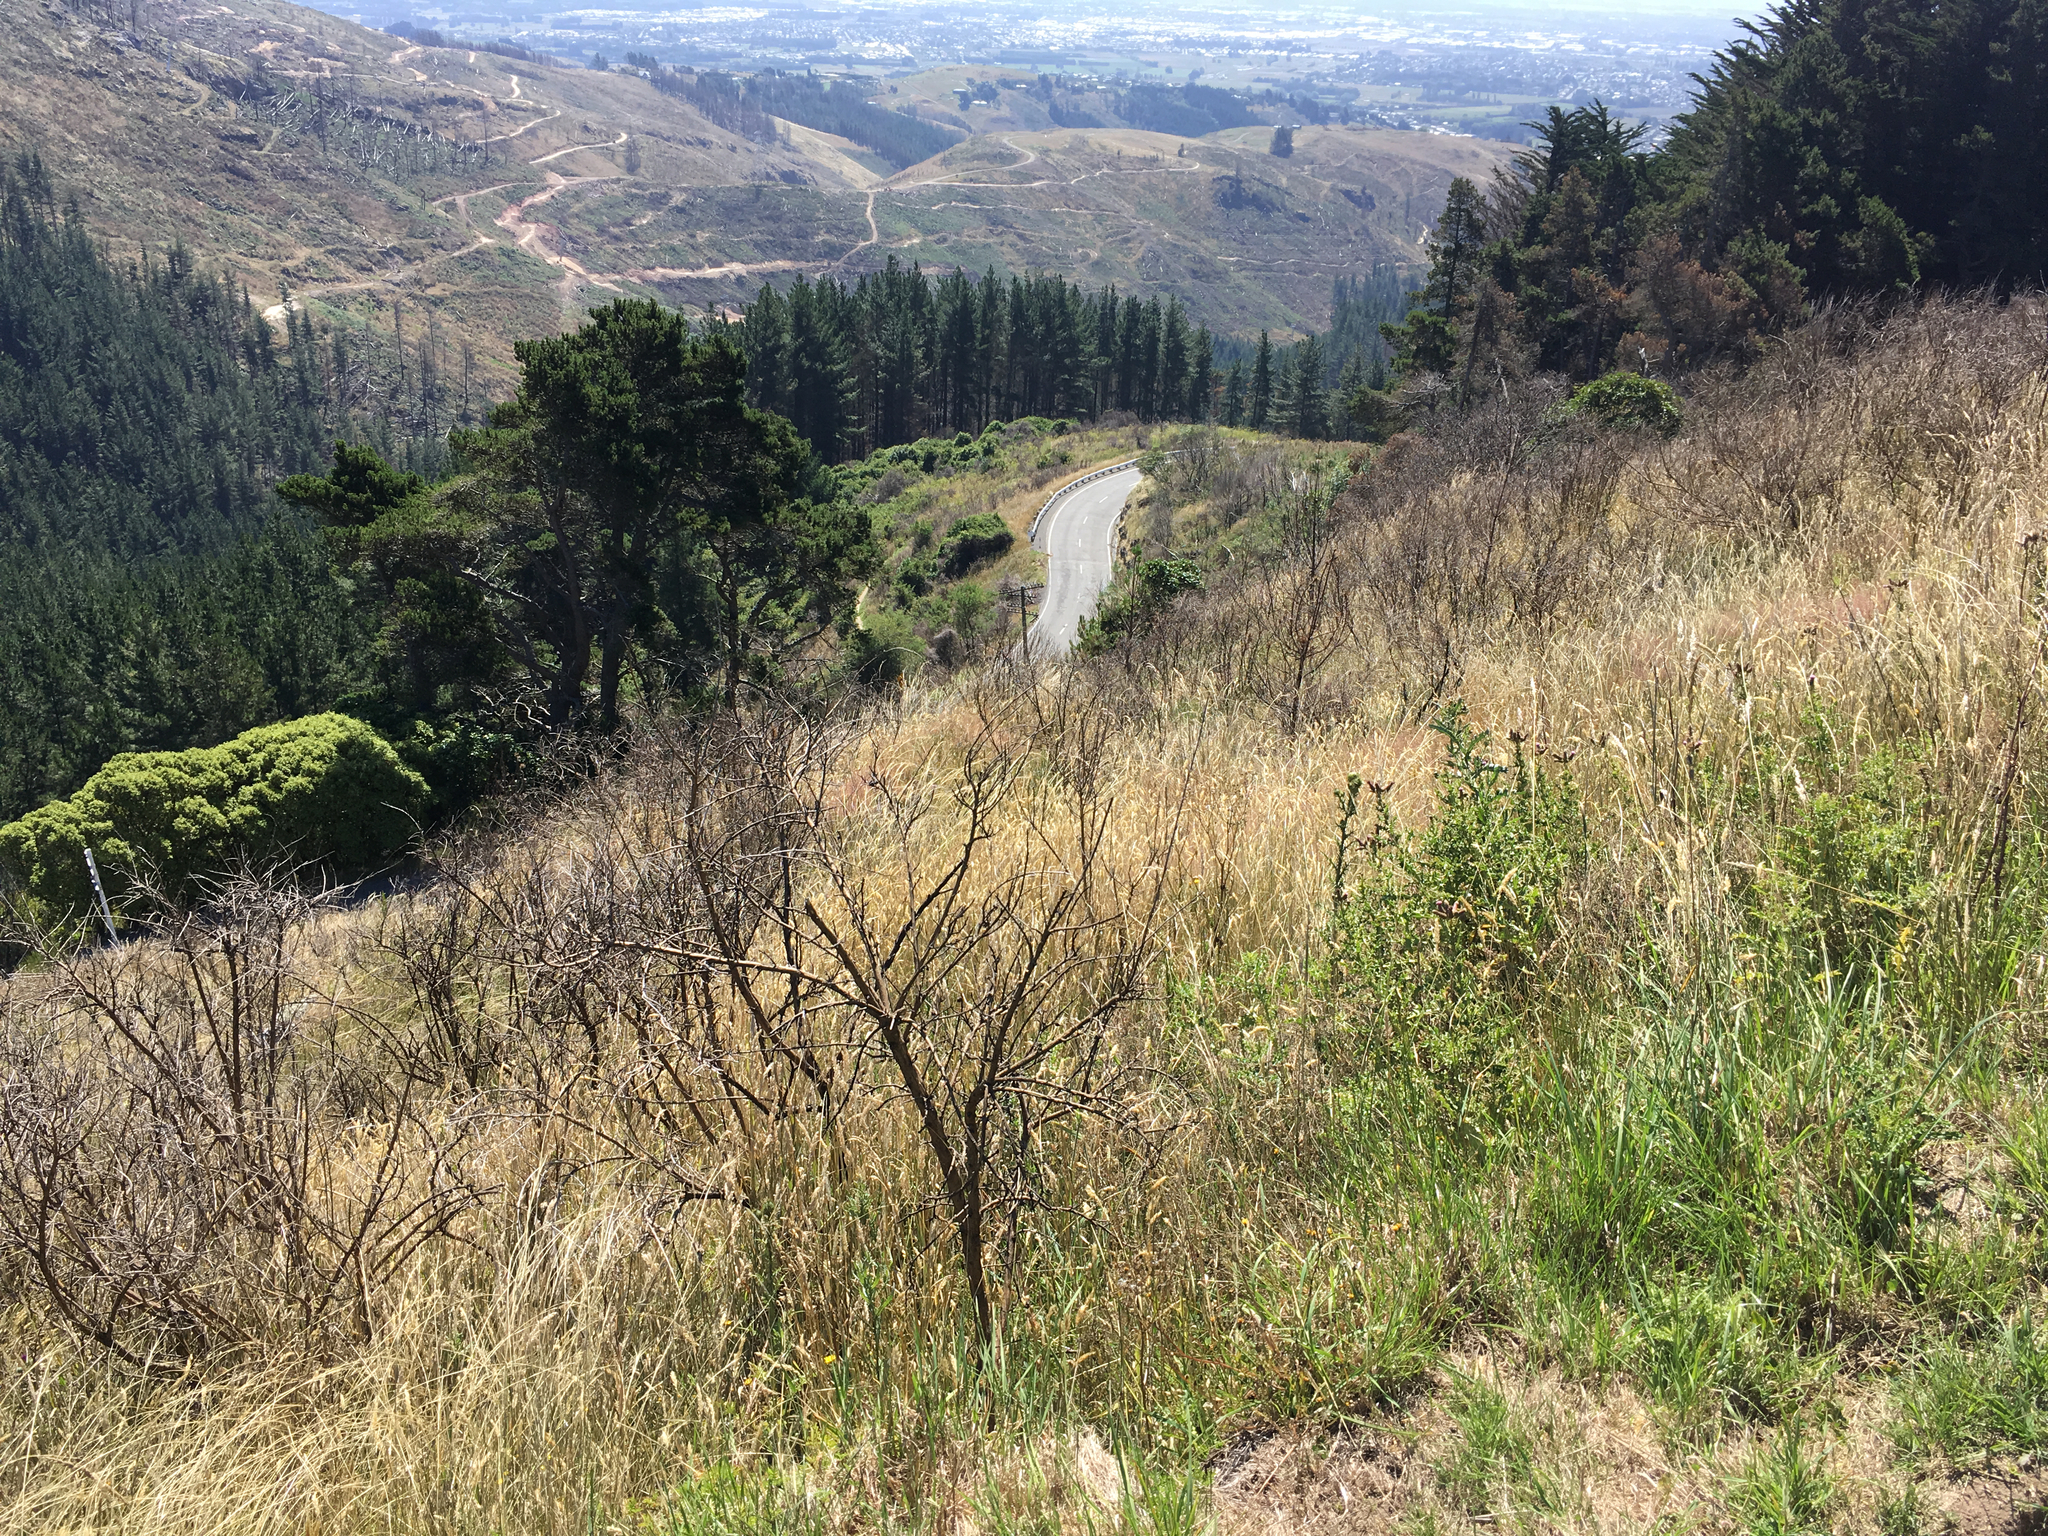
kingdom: Plantae
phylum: Tracheophyta
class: Magnoliopsida
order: Fabales
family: Fabaceae
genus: Cytisus
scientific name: Cytisus scoparius
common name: Scotch broom
